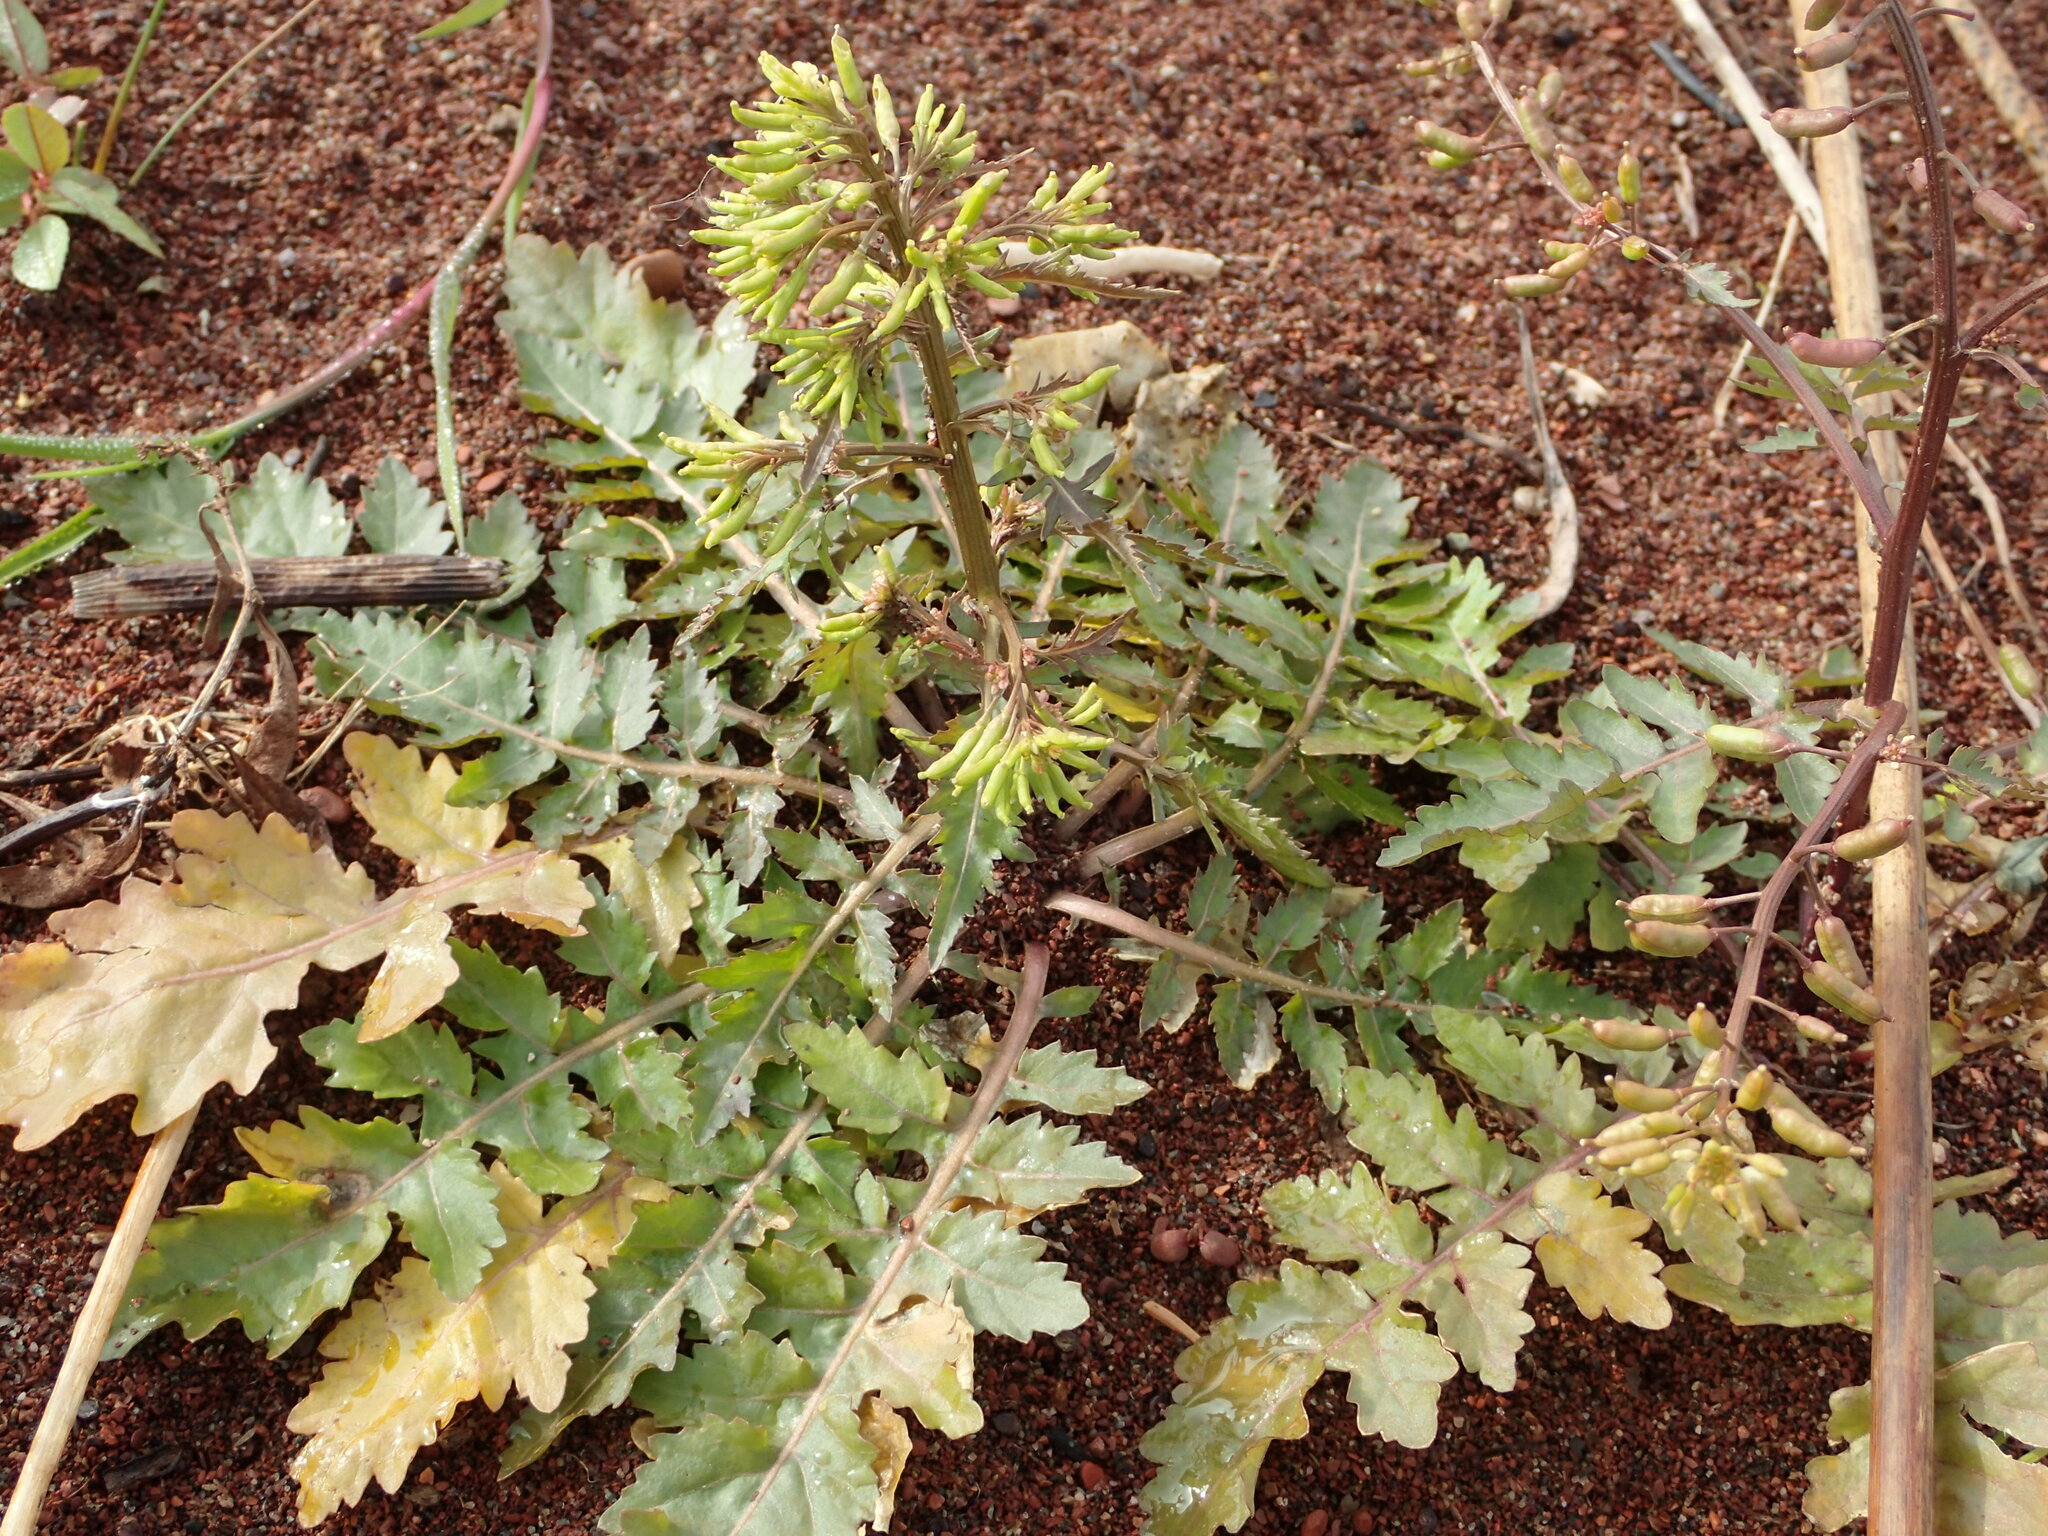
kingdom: Plantae
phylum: Tracheophyta
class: Magnoliopsida
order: Brassicales
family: Brassicaceae
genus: Rorippa
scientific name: Rorippa palustris
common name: Marsh yellow-cress
